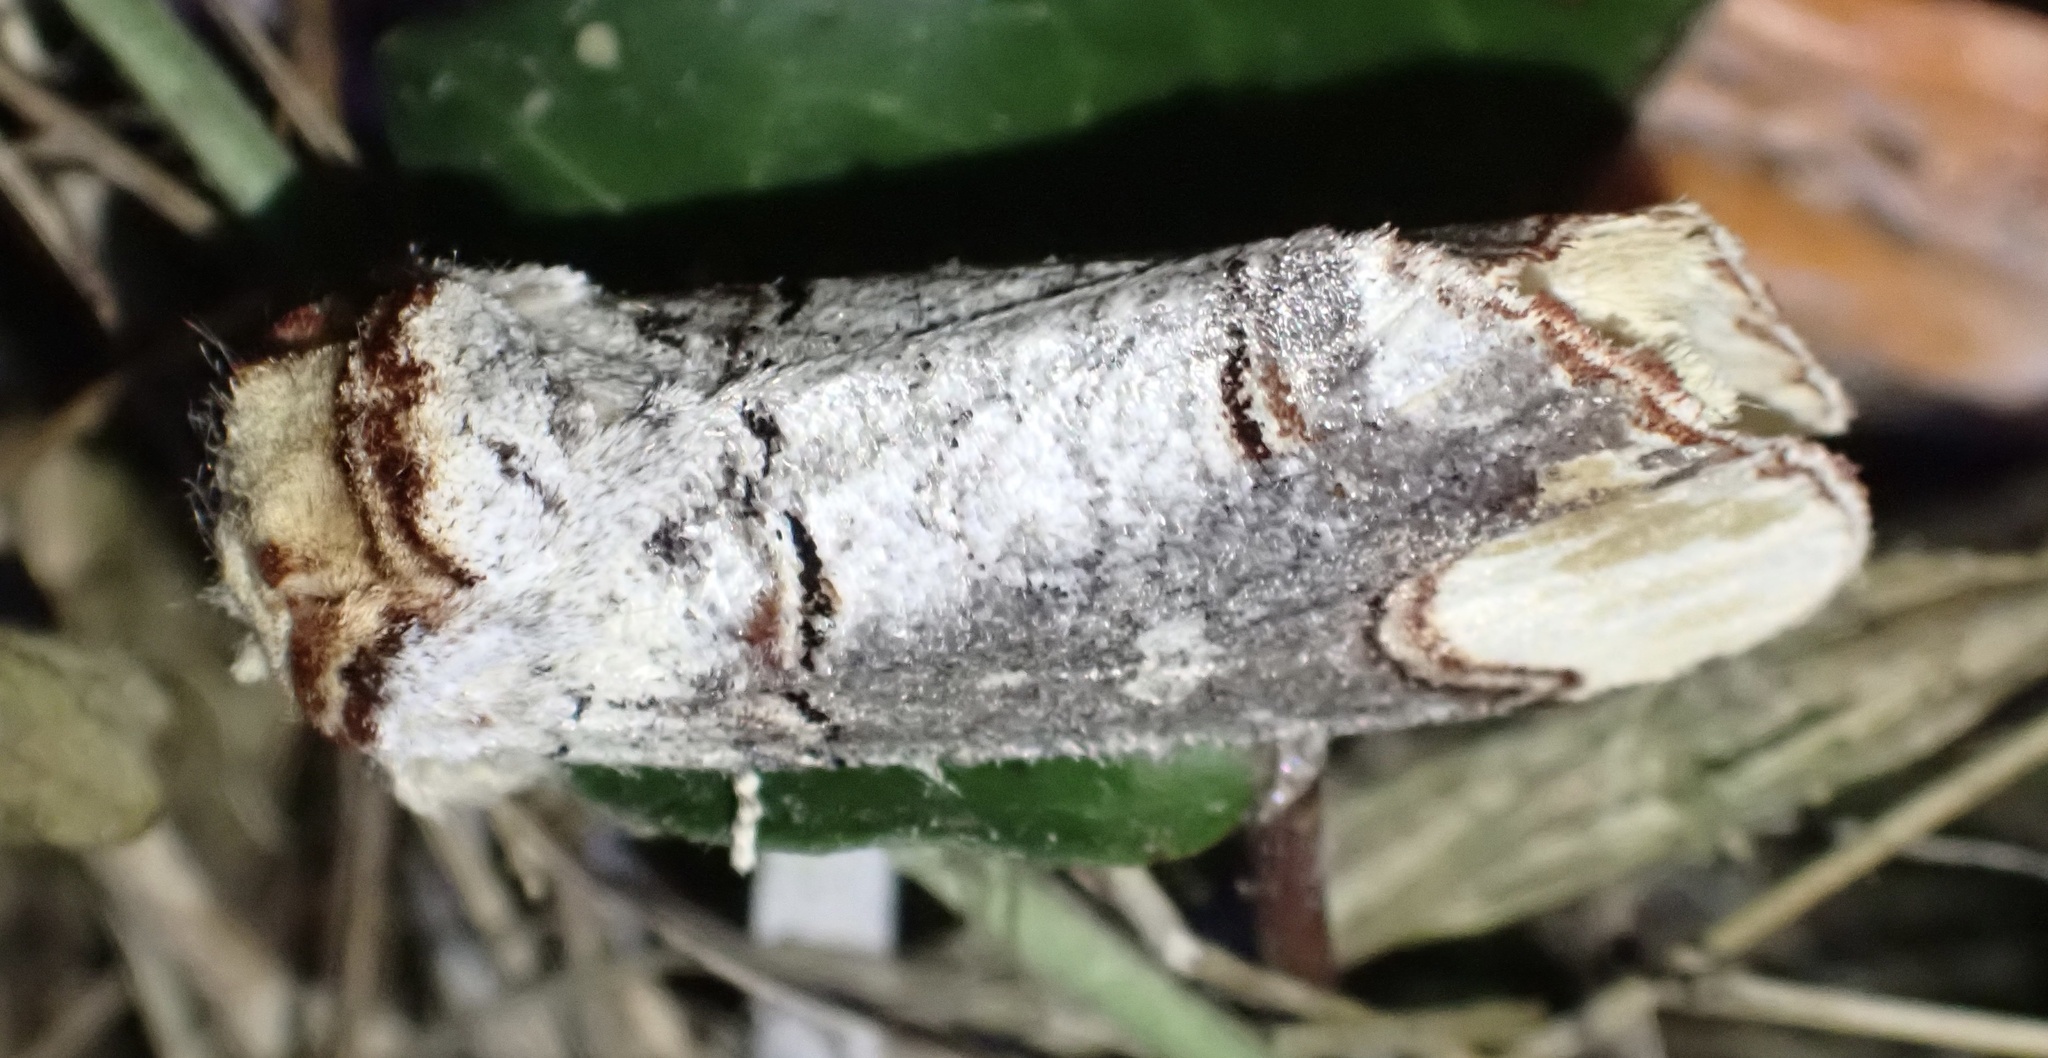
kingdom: Animalia
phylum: Arthropoda
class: Insecta
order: Lepidoptera
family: Notodontidae
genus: Phalera
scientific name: Phalera bucephala
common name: Buff-tip
